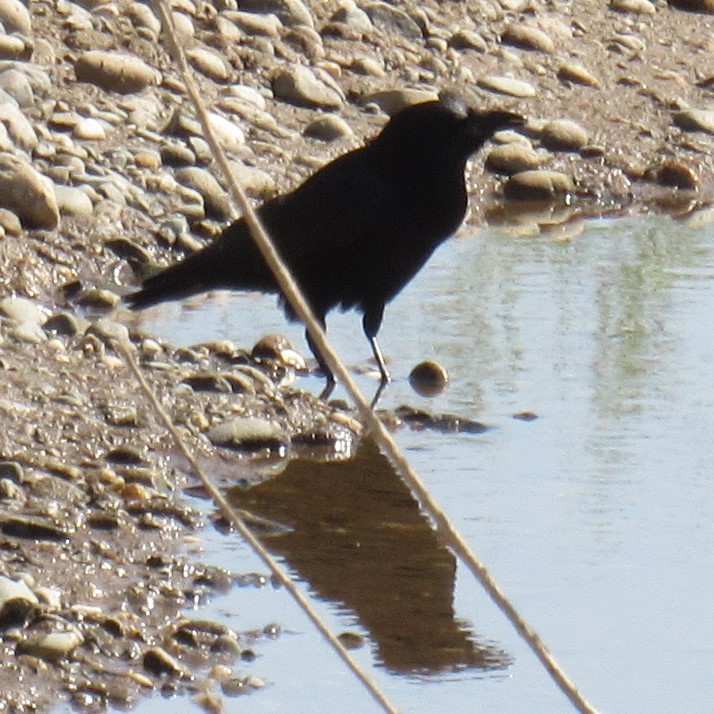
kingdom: Animalia
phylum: Chordata
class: Aves
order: Passeriformes
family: Corvidae
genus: Corvus
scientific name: Corvus brachyrhynchos
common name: American crow
